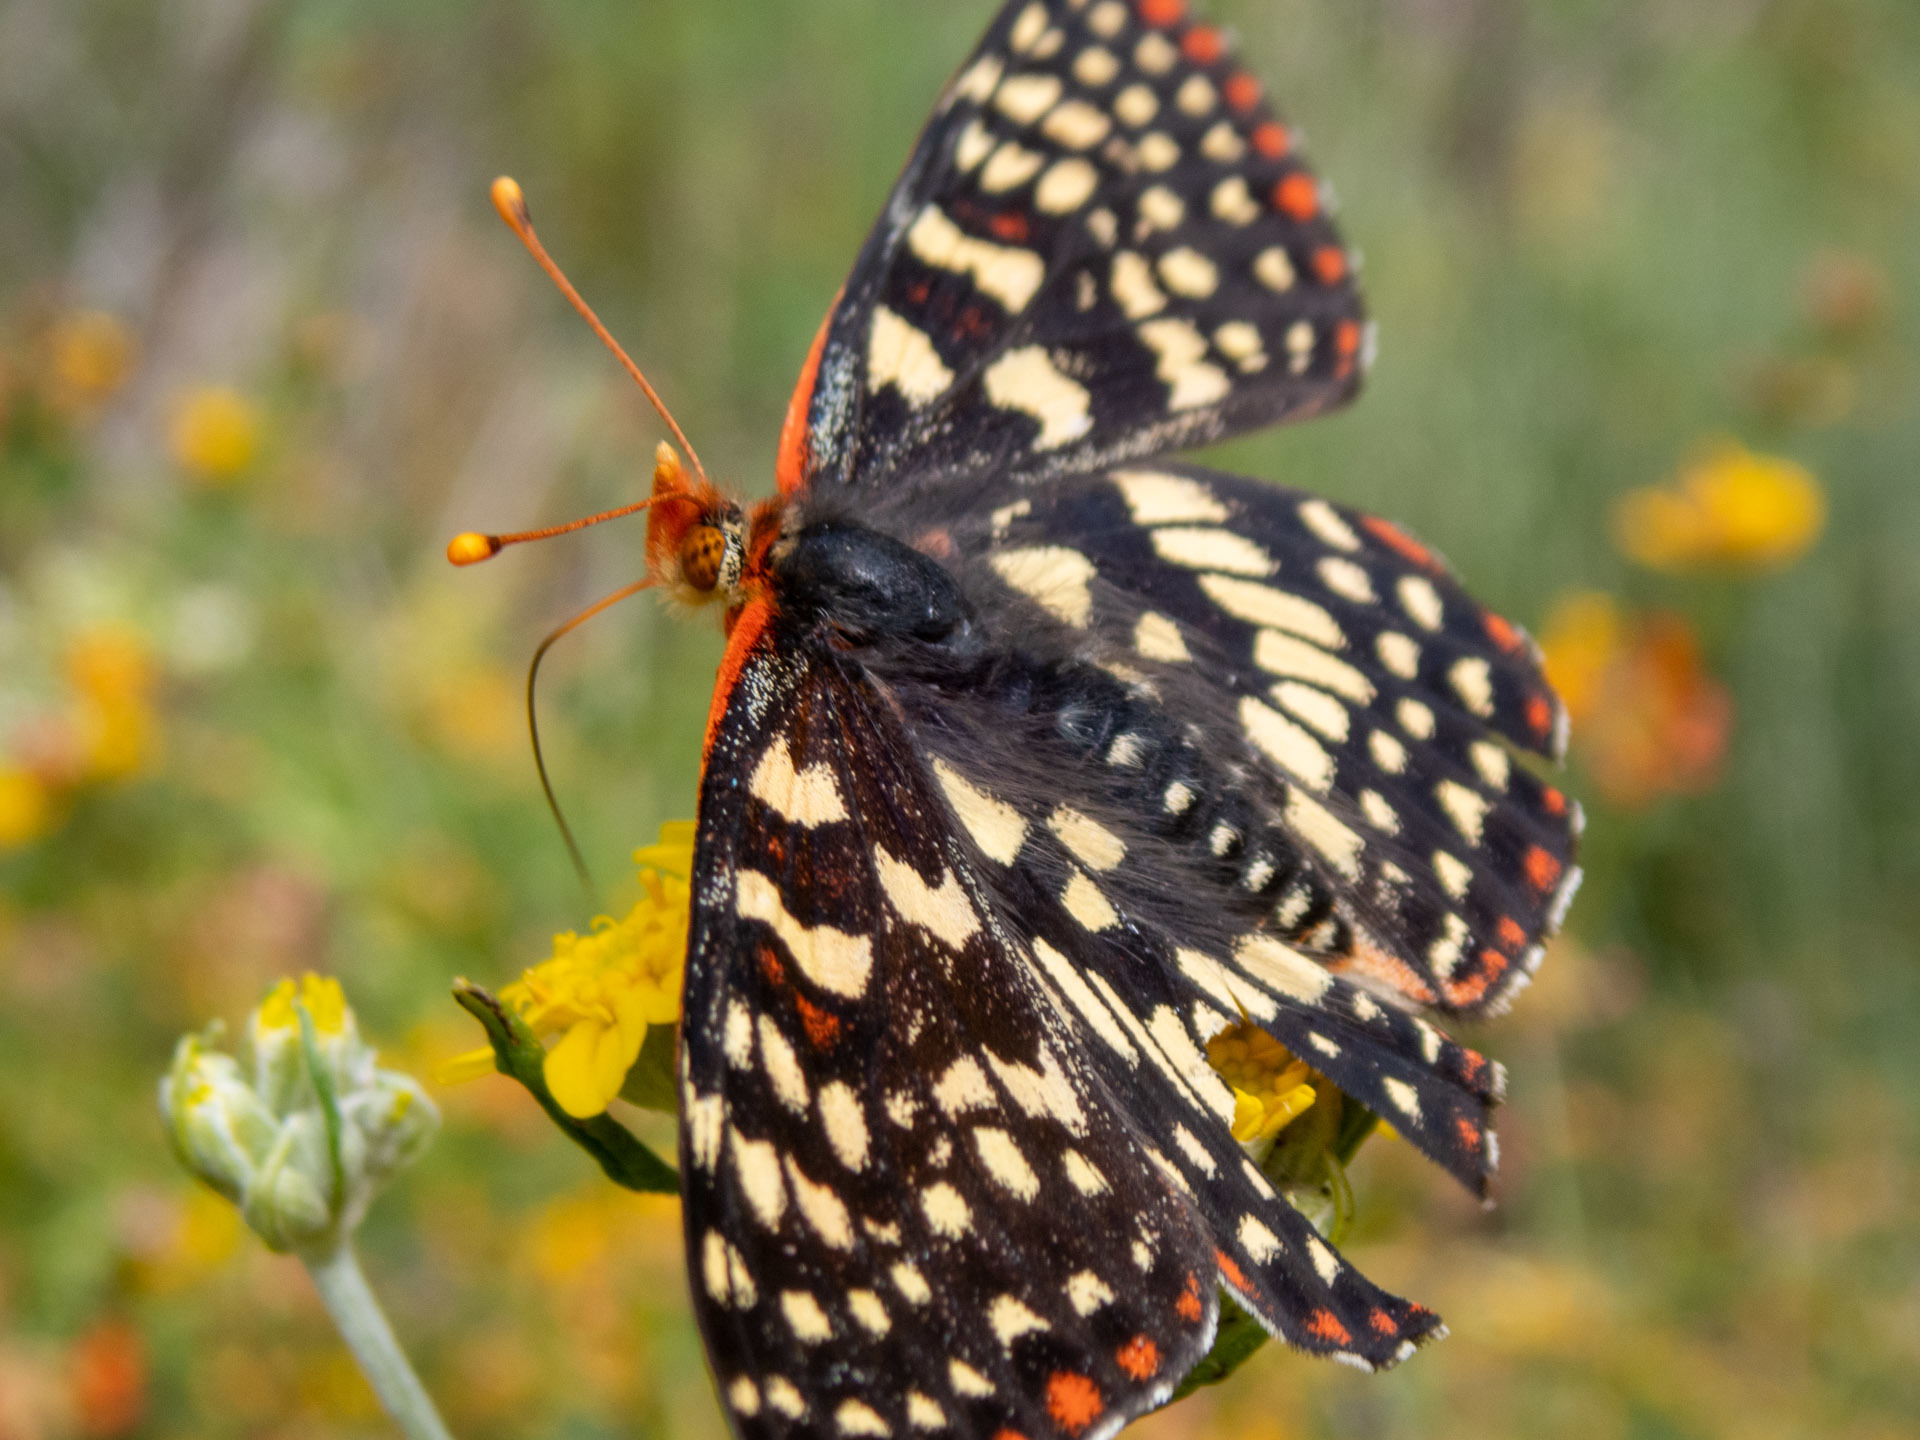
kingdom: Animalia
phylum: Arthropoda
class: Insecta
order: Lepidoptera
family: Nymphalidae
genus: Occidryas
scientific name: Occidryas chalcedona
